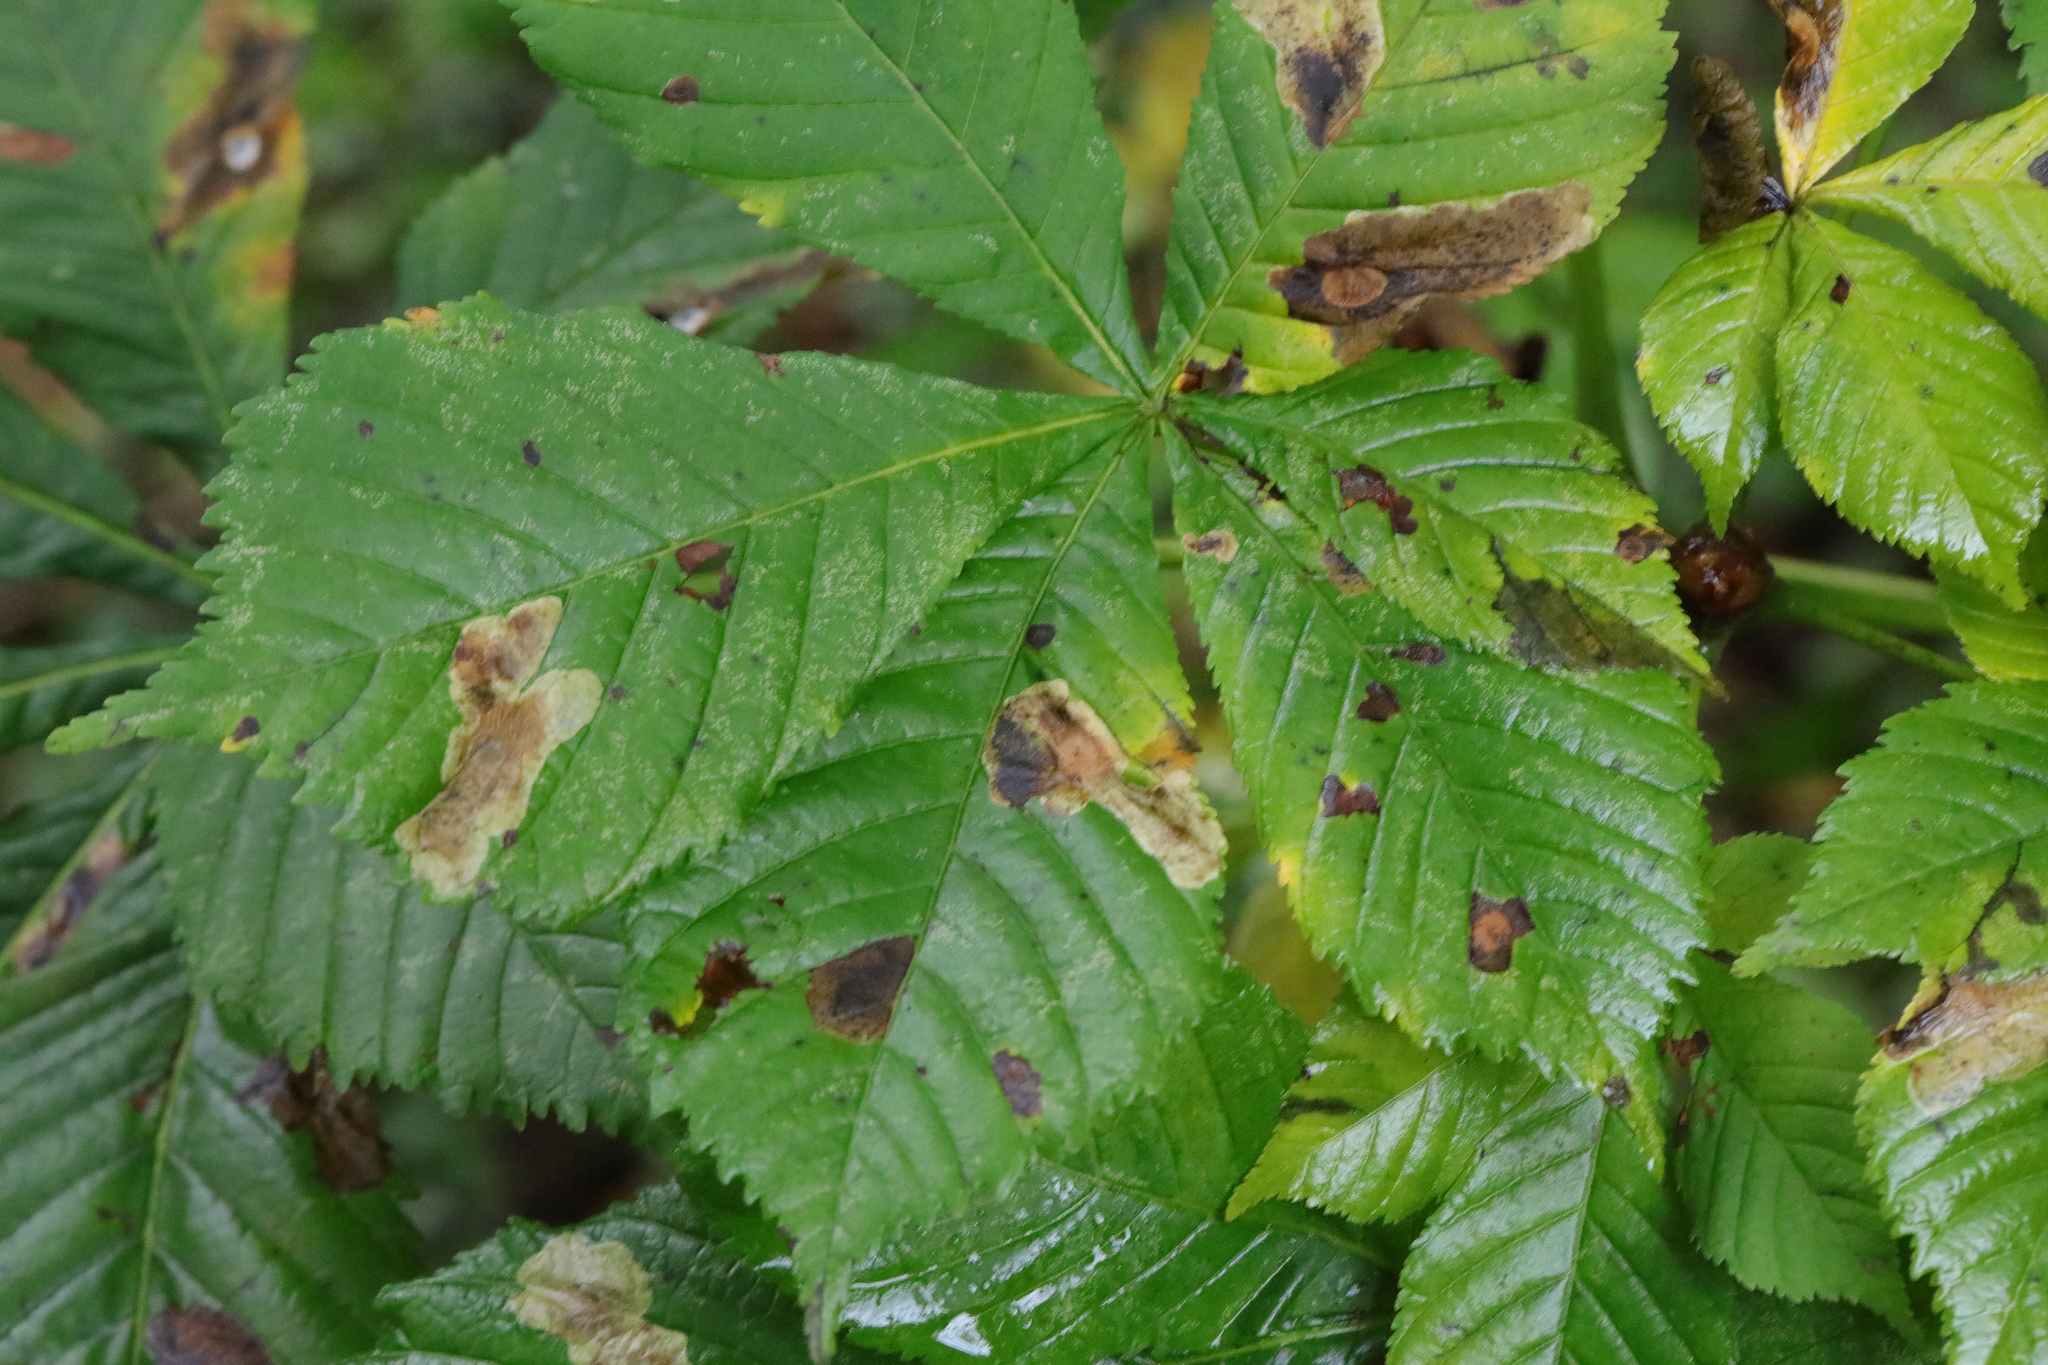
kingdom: Animalia
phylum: Arthropoda
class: Insecta
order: Lepidoptera
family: Gracillariidae
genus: Cameraria
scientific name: Cameraria ohridella
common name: Horse-chestnut leaf-miner
